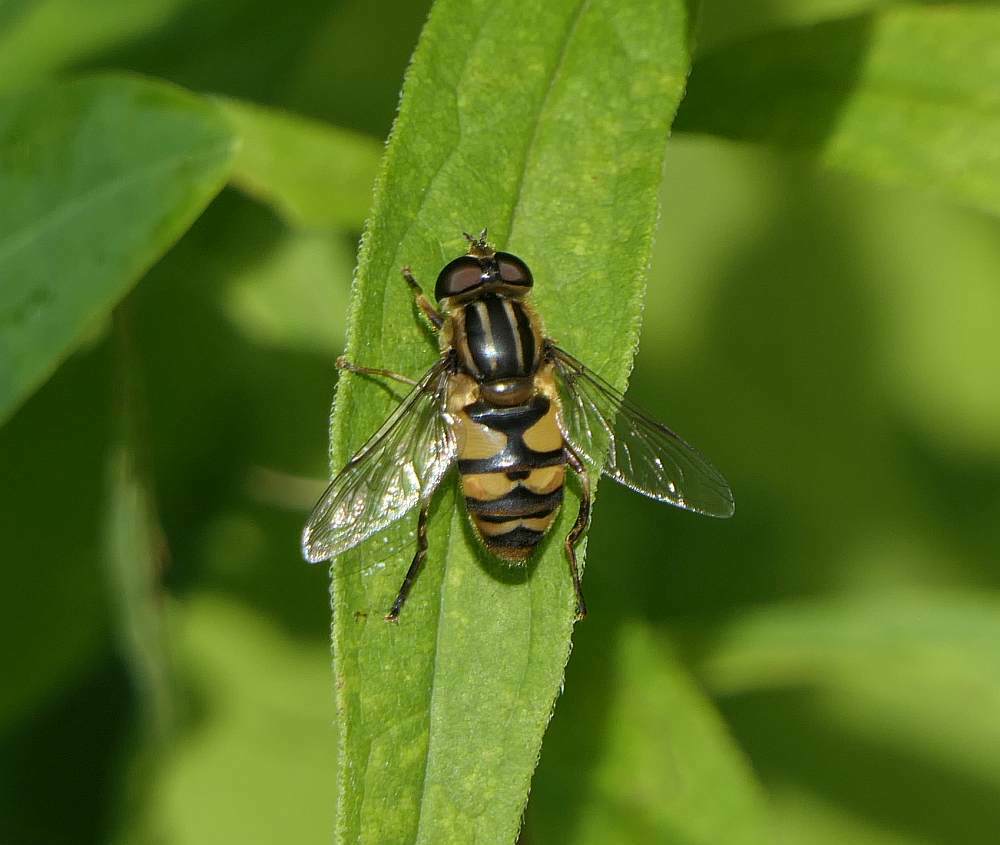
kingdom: Animalia
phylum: Arthropoda
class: Insecta
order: Diptera
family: Syrphidae
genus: Helophilus
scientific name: Helophilus fasciatus
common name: Narrow-headed marsh fly
